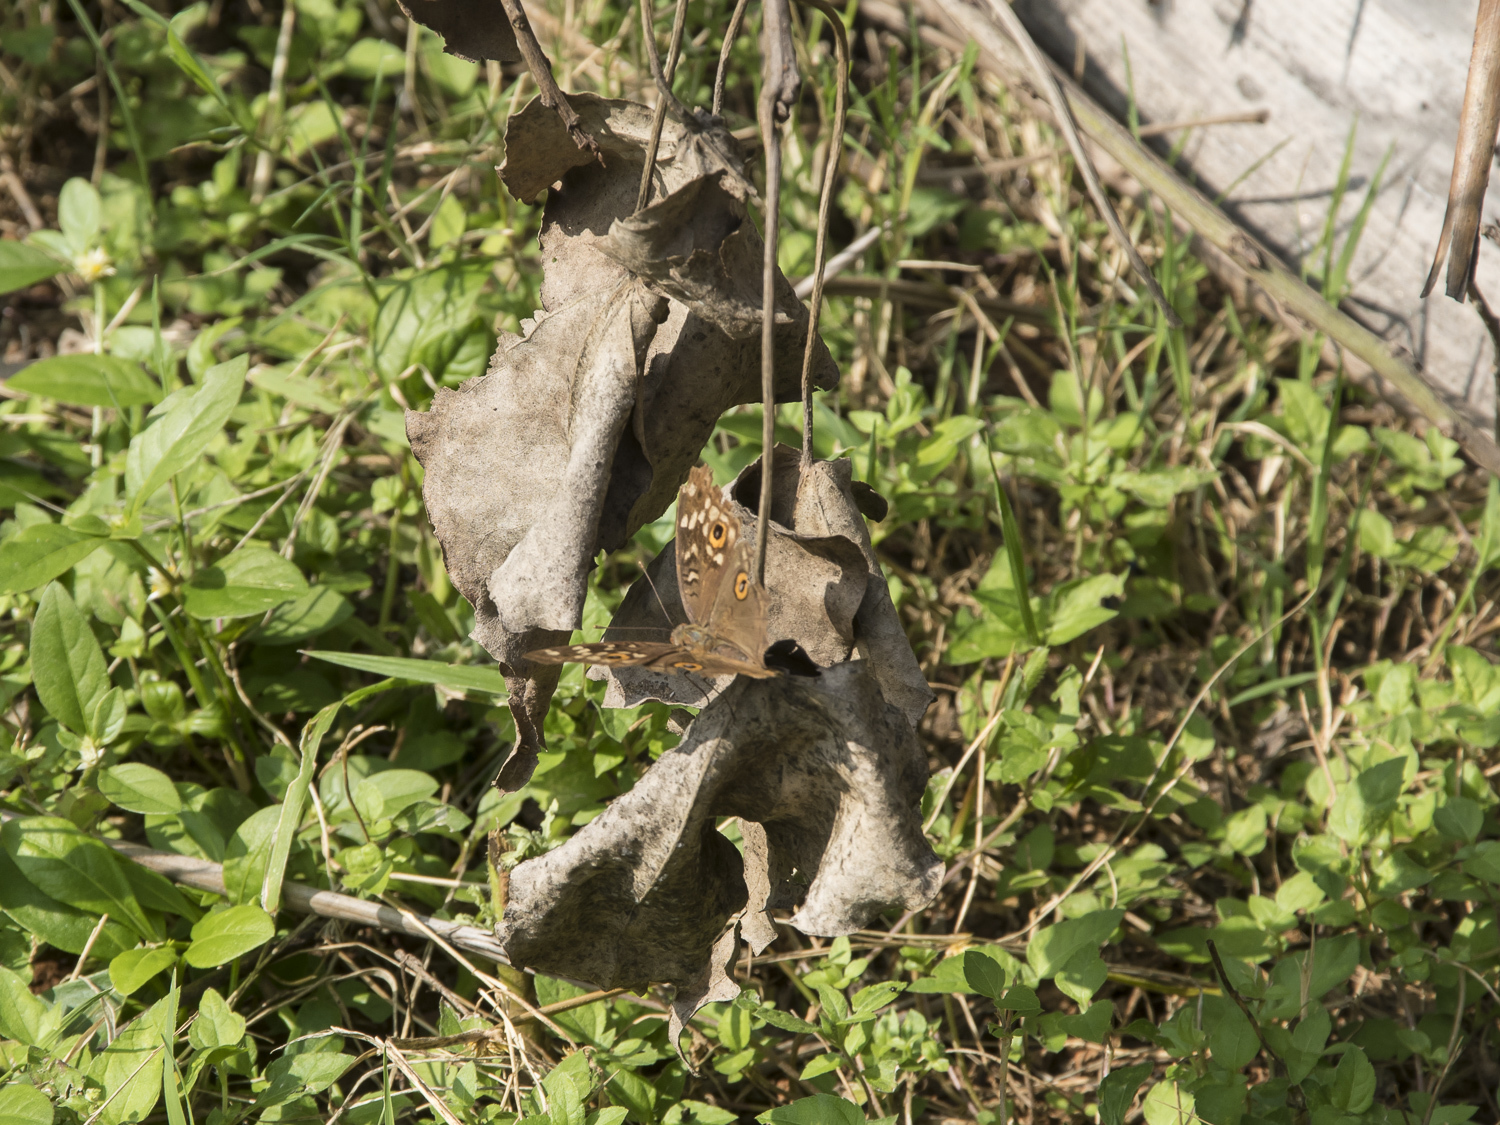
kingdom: Animalia
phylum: Arthropoda
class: Insecta
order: Lepidoptera
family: Nymphalidae
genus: Junonia
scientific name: Junonia lemonias
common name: Lemon pansy
